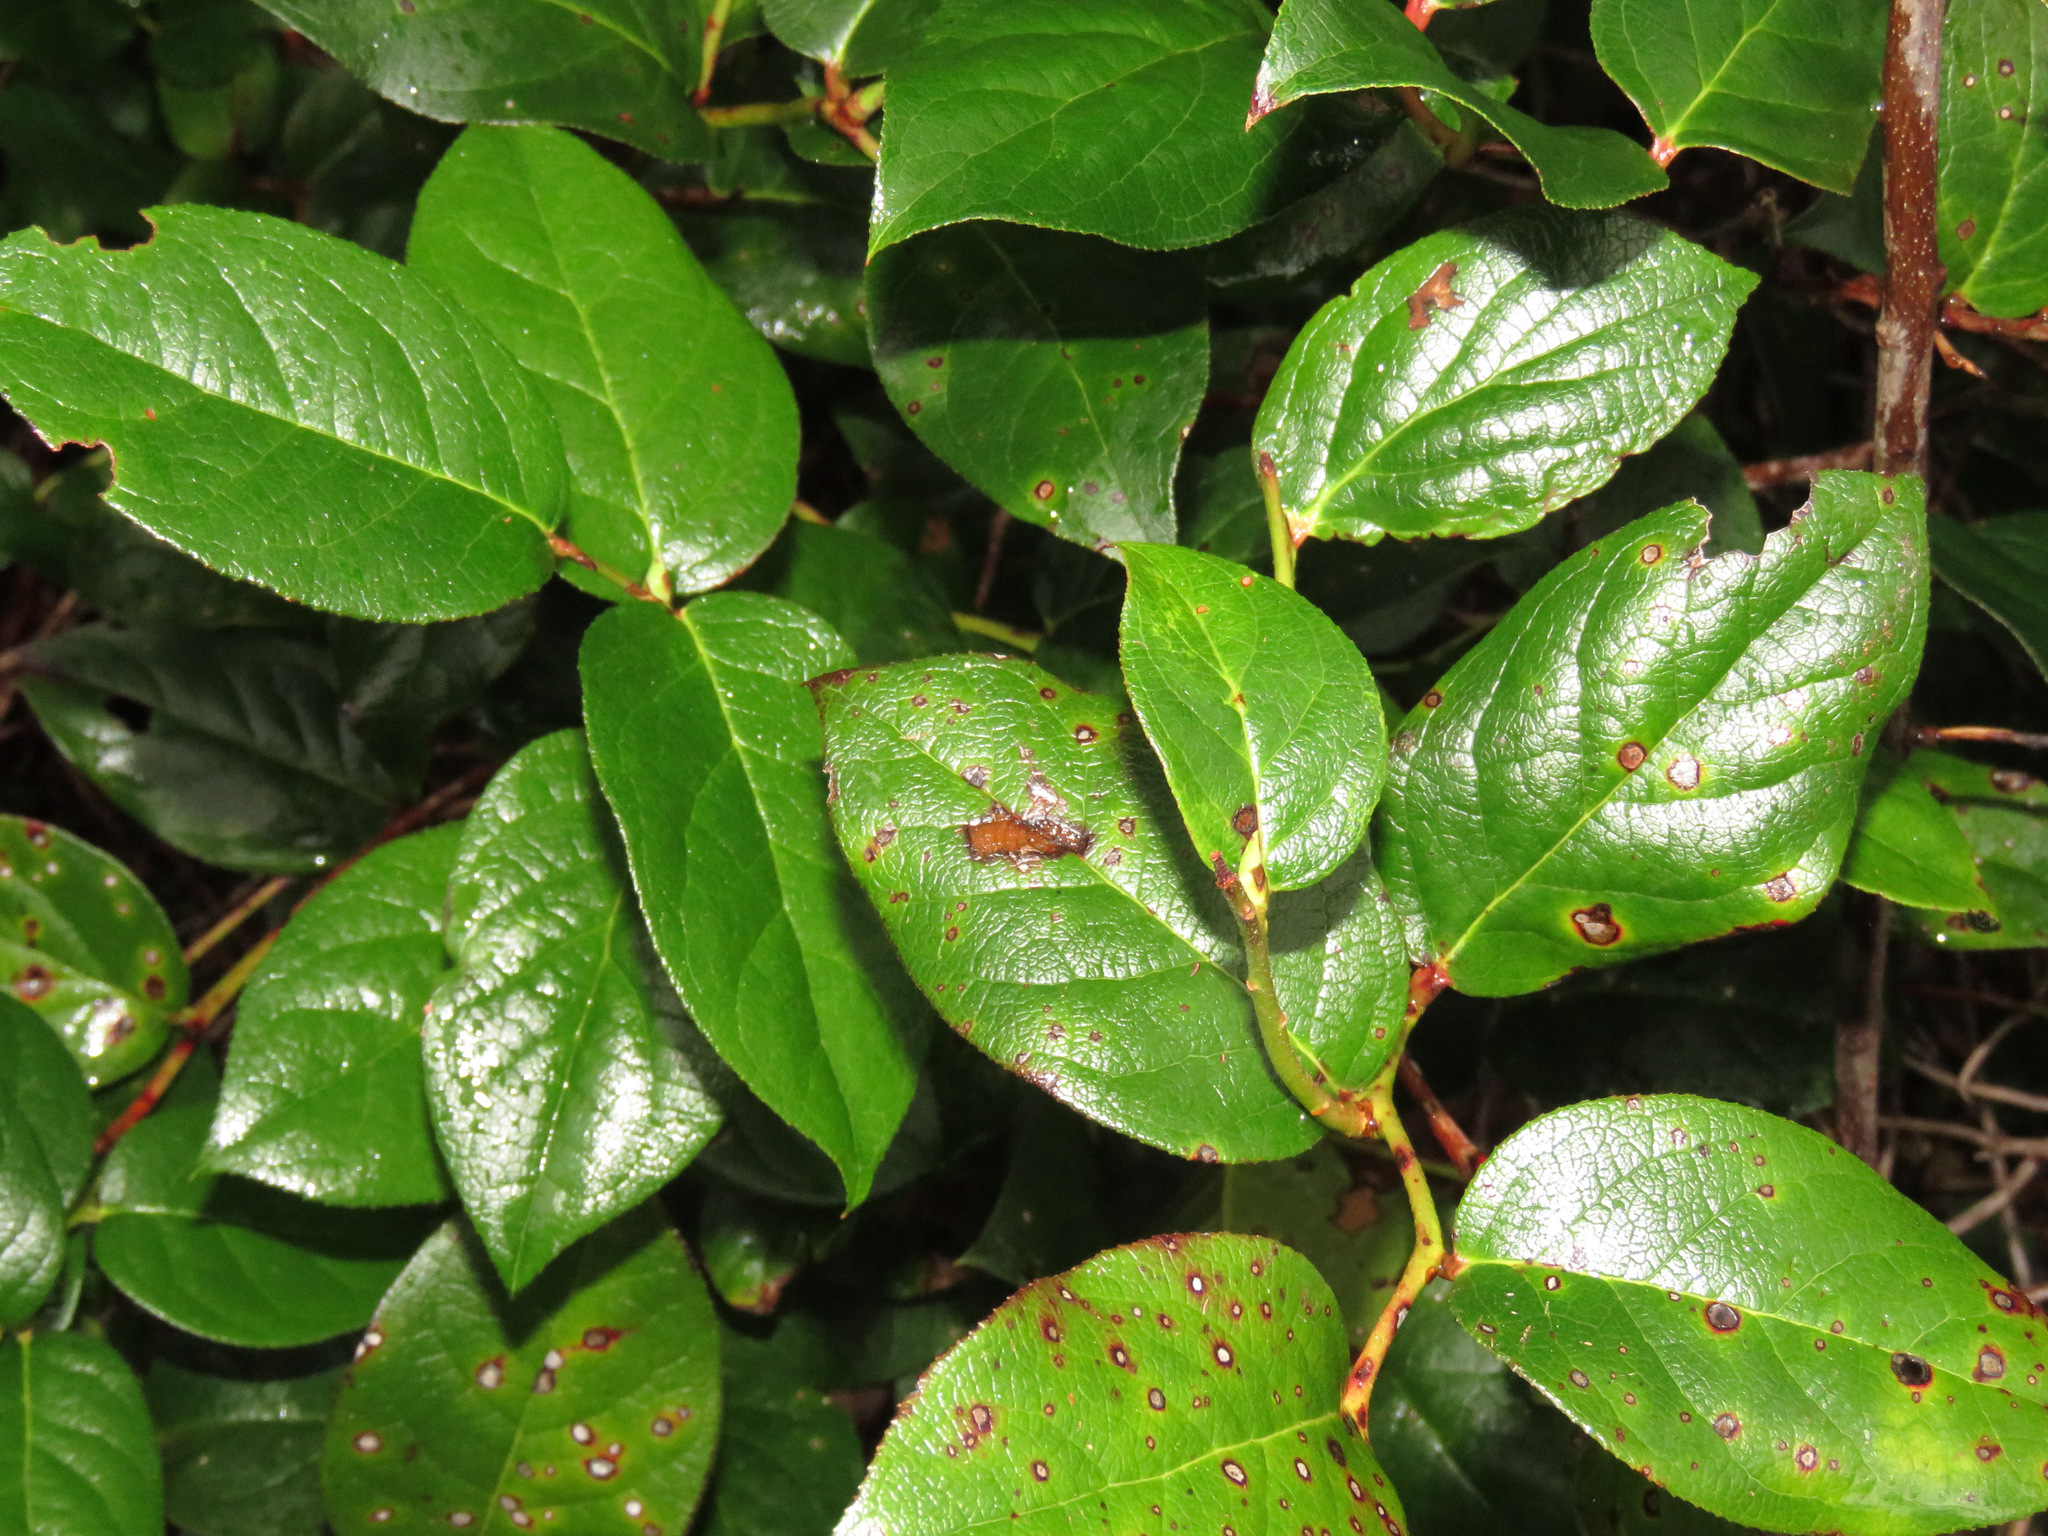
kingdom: Plantae
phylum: Tracheophyta
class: Magnoliopsida
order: Ericales
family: Ericaceae
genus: Gaultheria
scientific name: Gaultheria shallon
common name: Shallon
